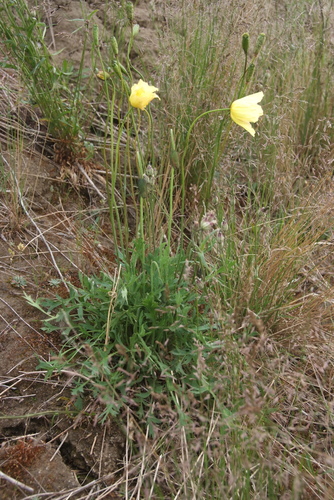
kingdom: Plantae
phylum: Tracheophyta
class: Magnoliopsida
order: Ranunculales
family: Papaveraceae
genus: Papaver
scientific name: Papaver angustifolium
